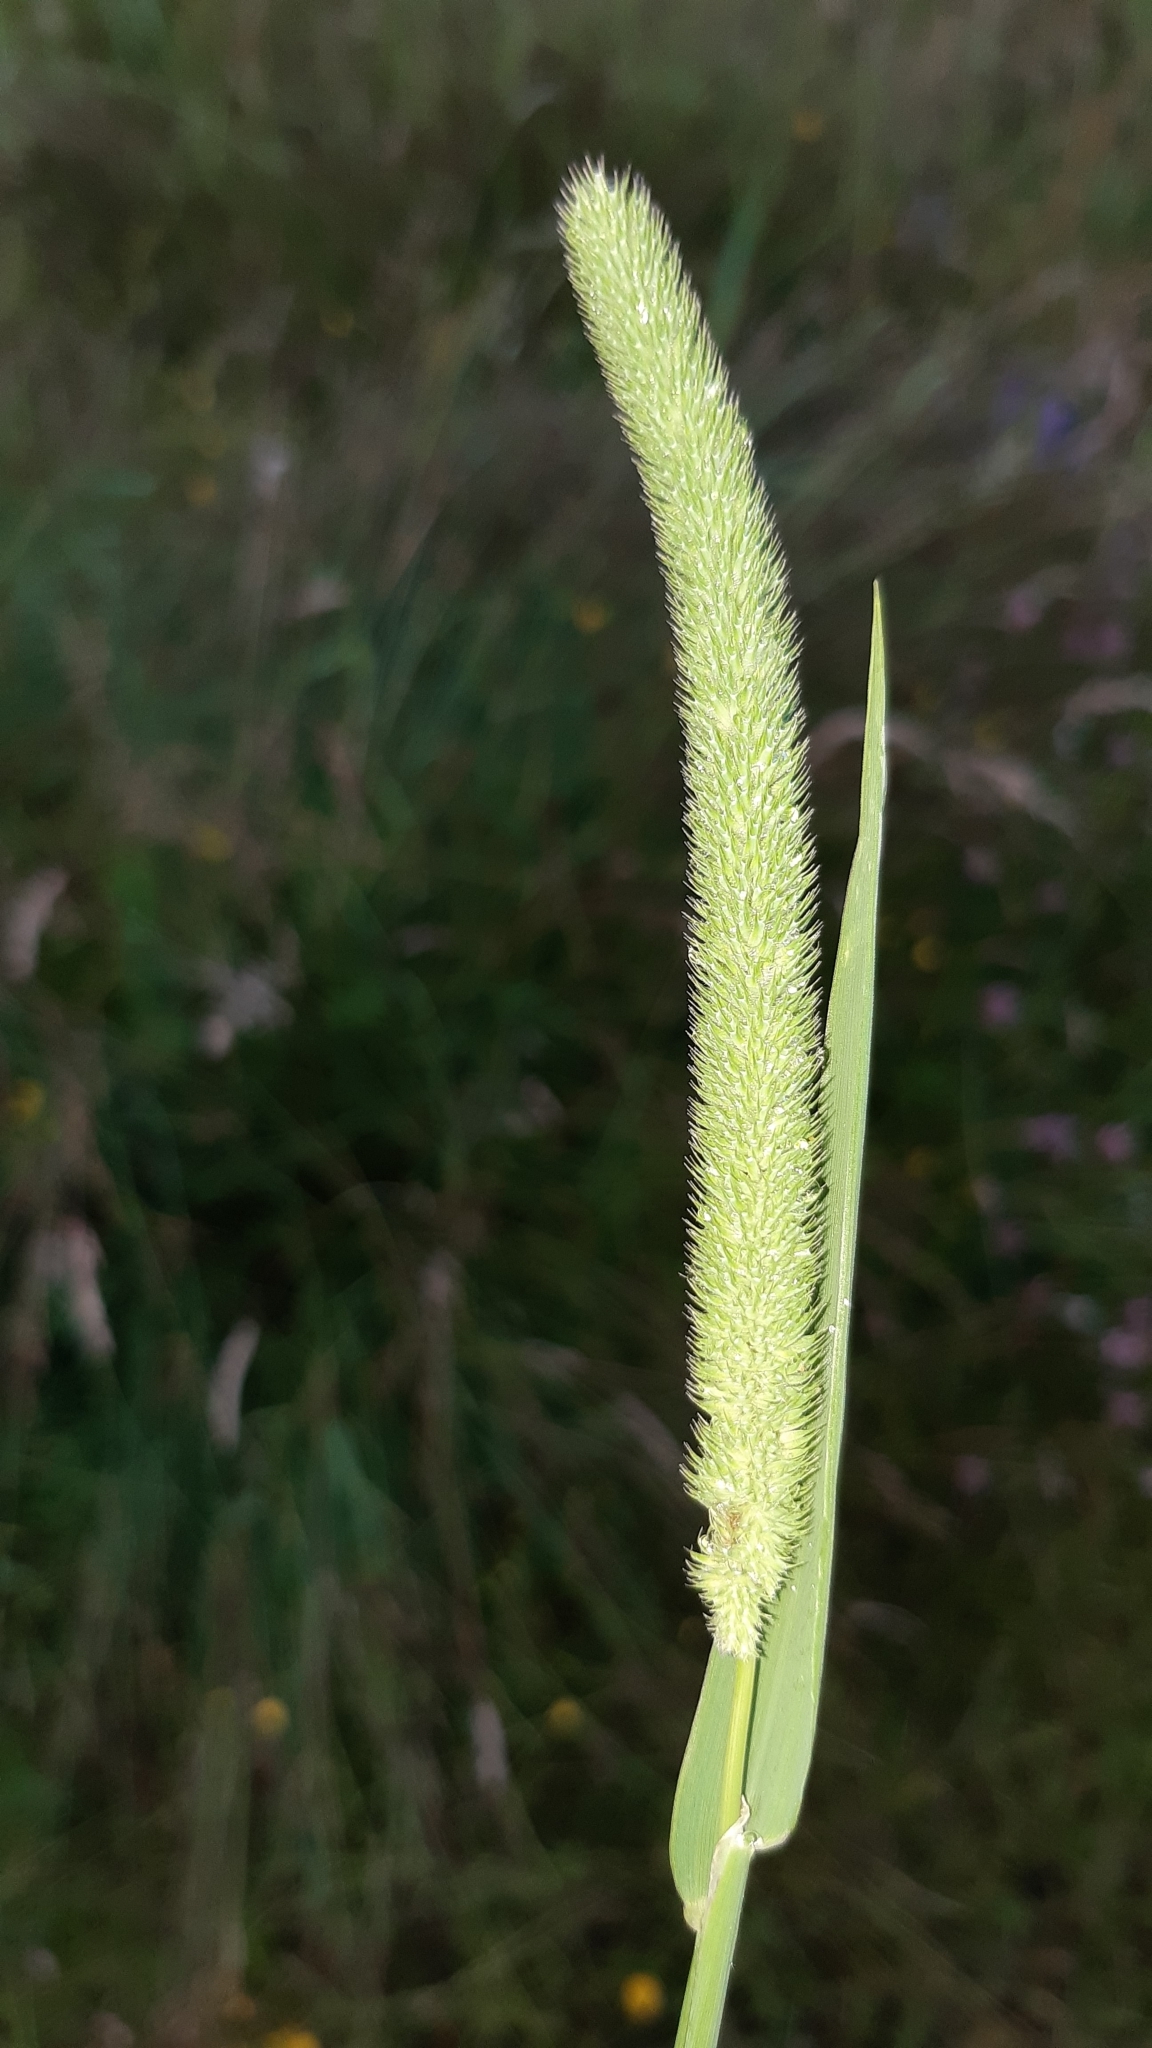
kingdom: Plantae
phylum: Tracheophyta
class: Liliopsida
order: Poales
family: Poaceae
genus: Phleum
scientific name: Phleum pratense
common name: Timothy grass
